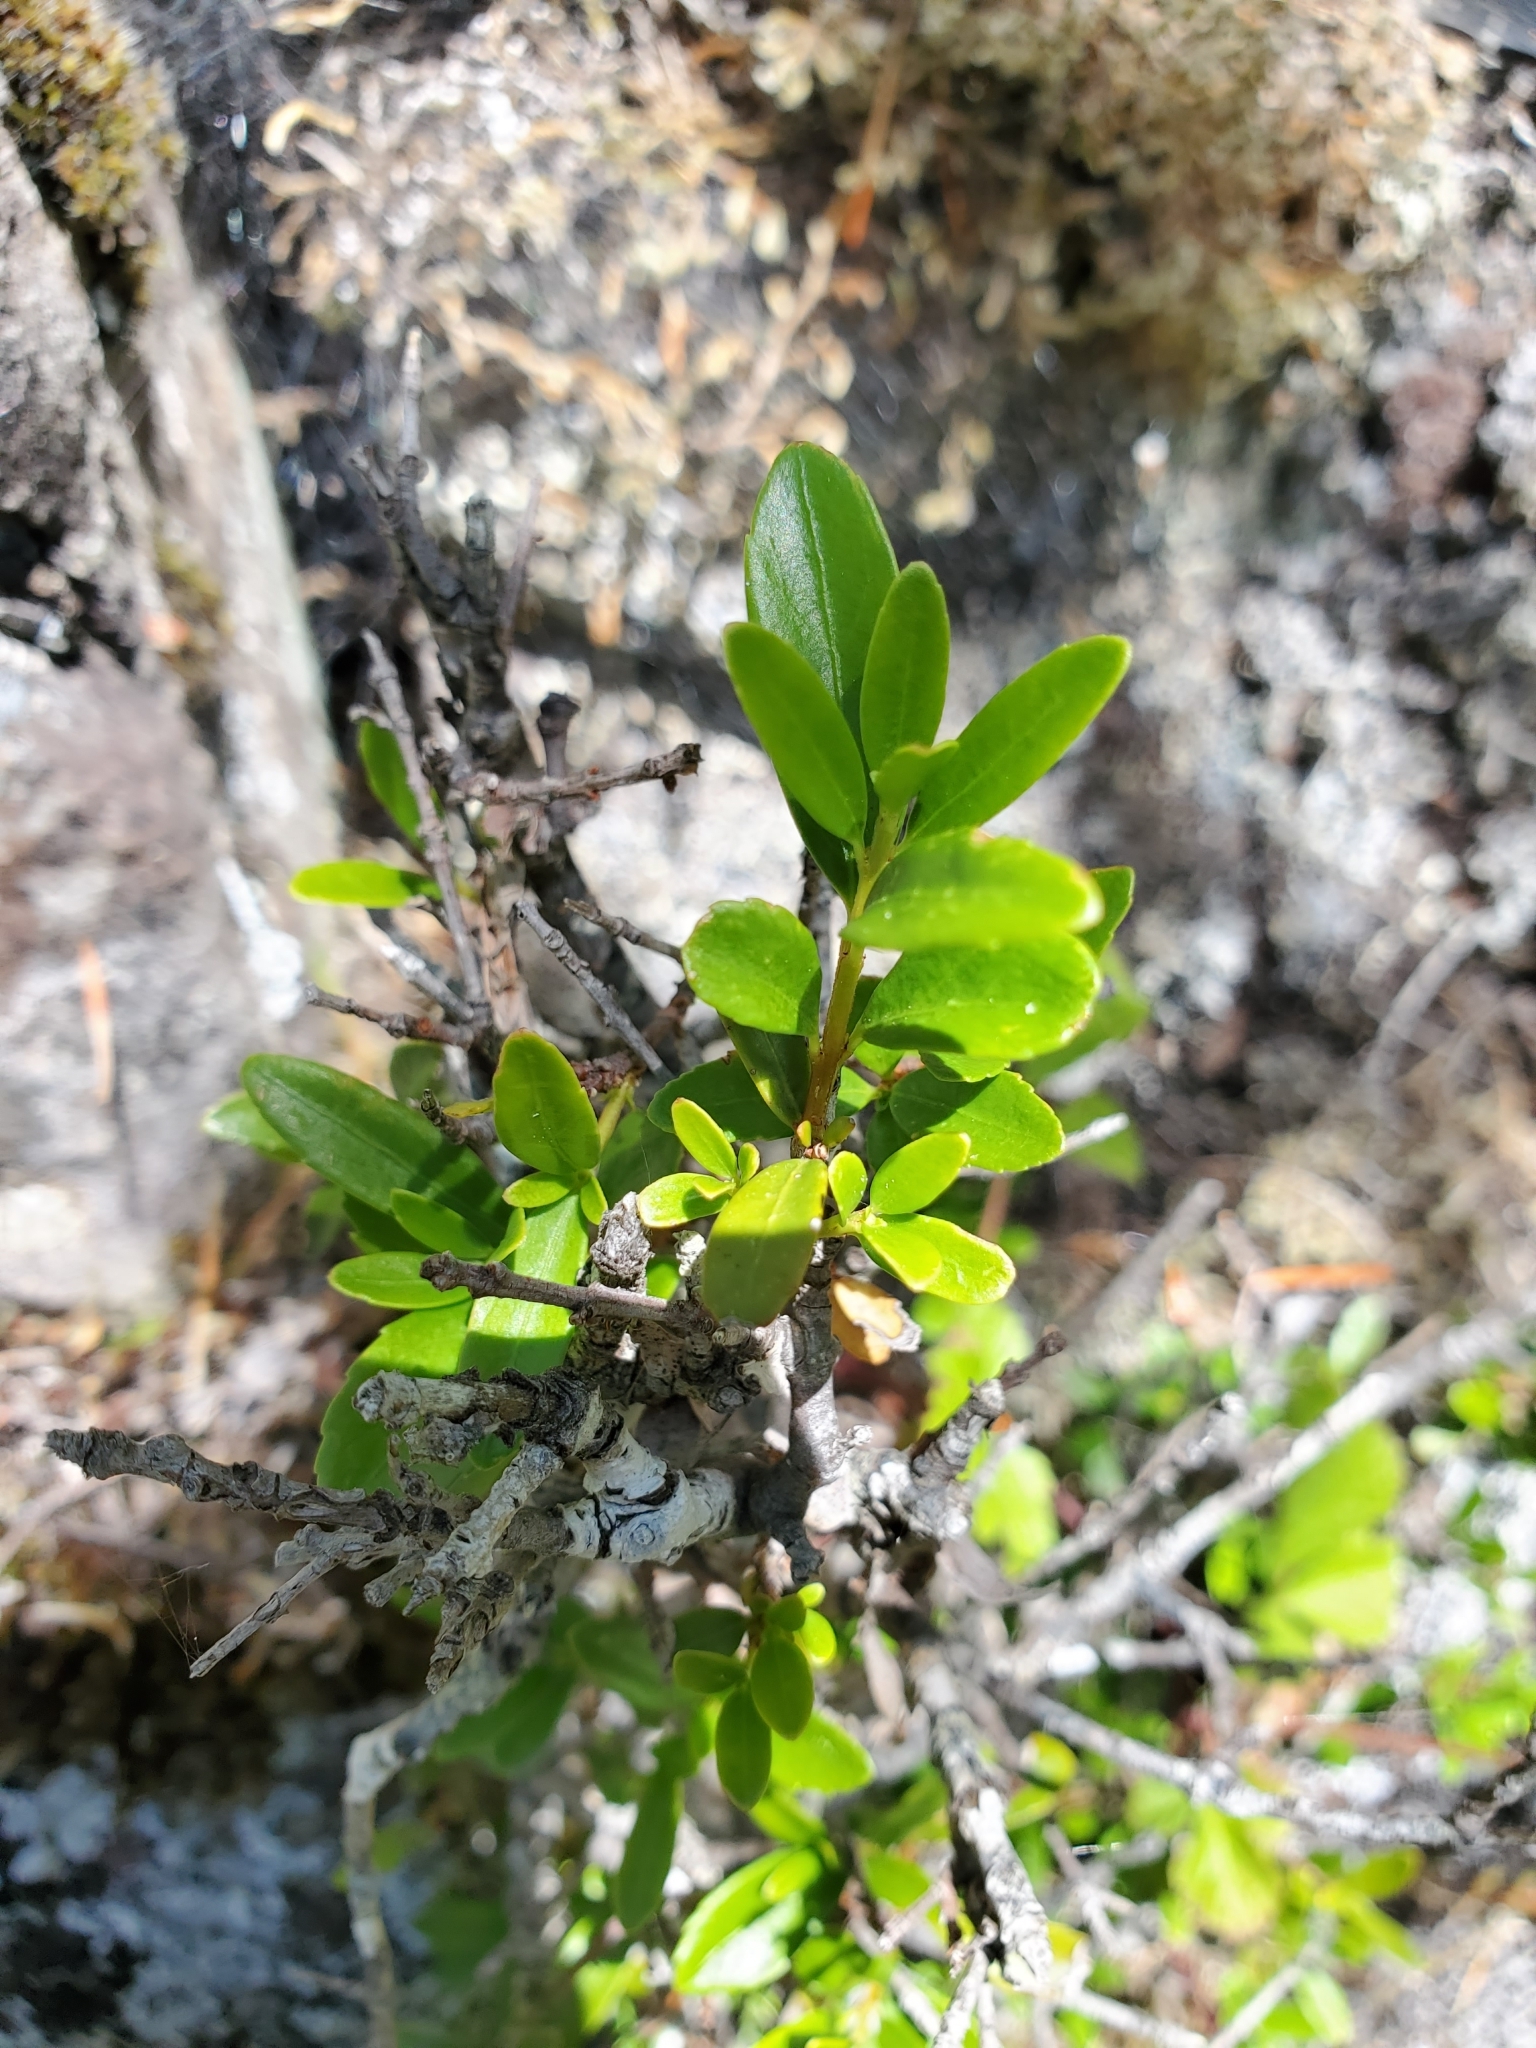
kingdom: Plantae
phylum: Tracheophyta
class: Magnoliopsida
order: Celastrales
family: Celastraceae
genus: Paxistima
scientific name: Paxistima myrsinites
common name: Mountain-lover
